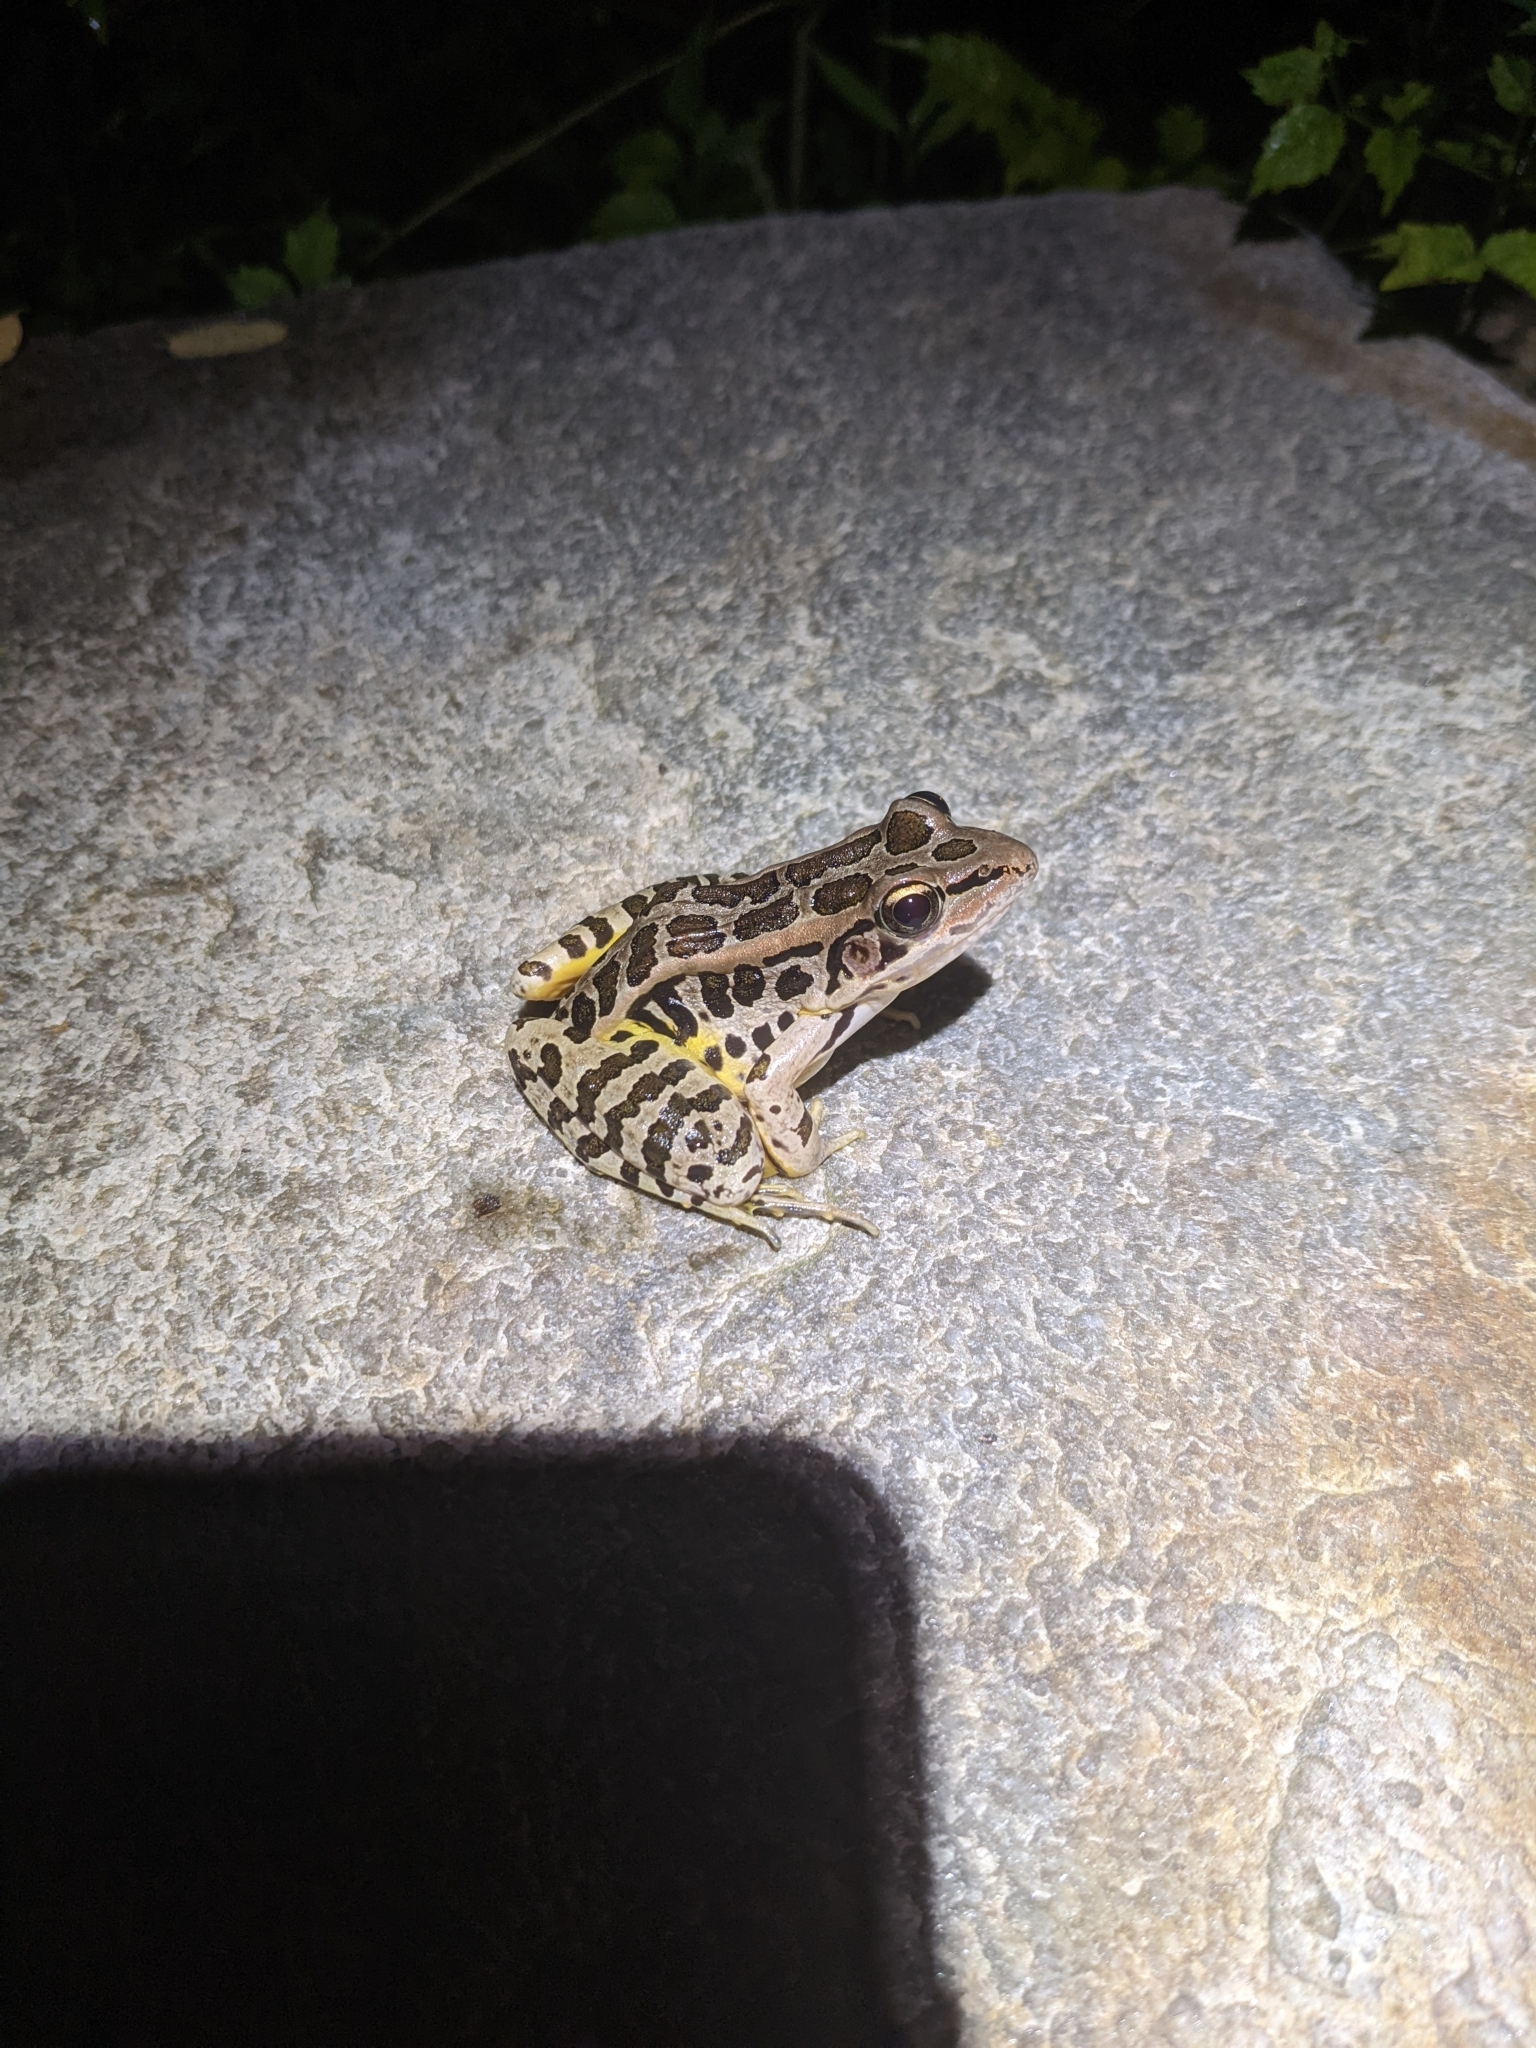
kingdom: Animalia
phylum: Chordata
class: Amphibia
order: Anura
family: Ranidae
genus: Lithobates
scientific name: Lithobates palustris
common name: Pickerel frog
